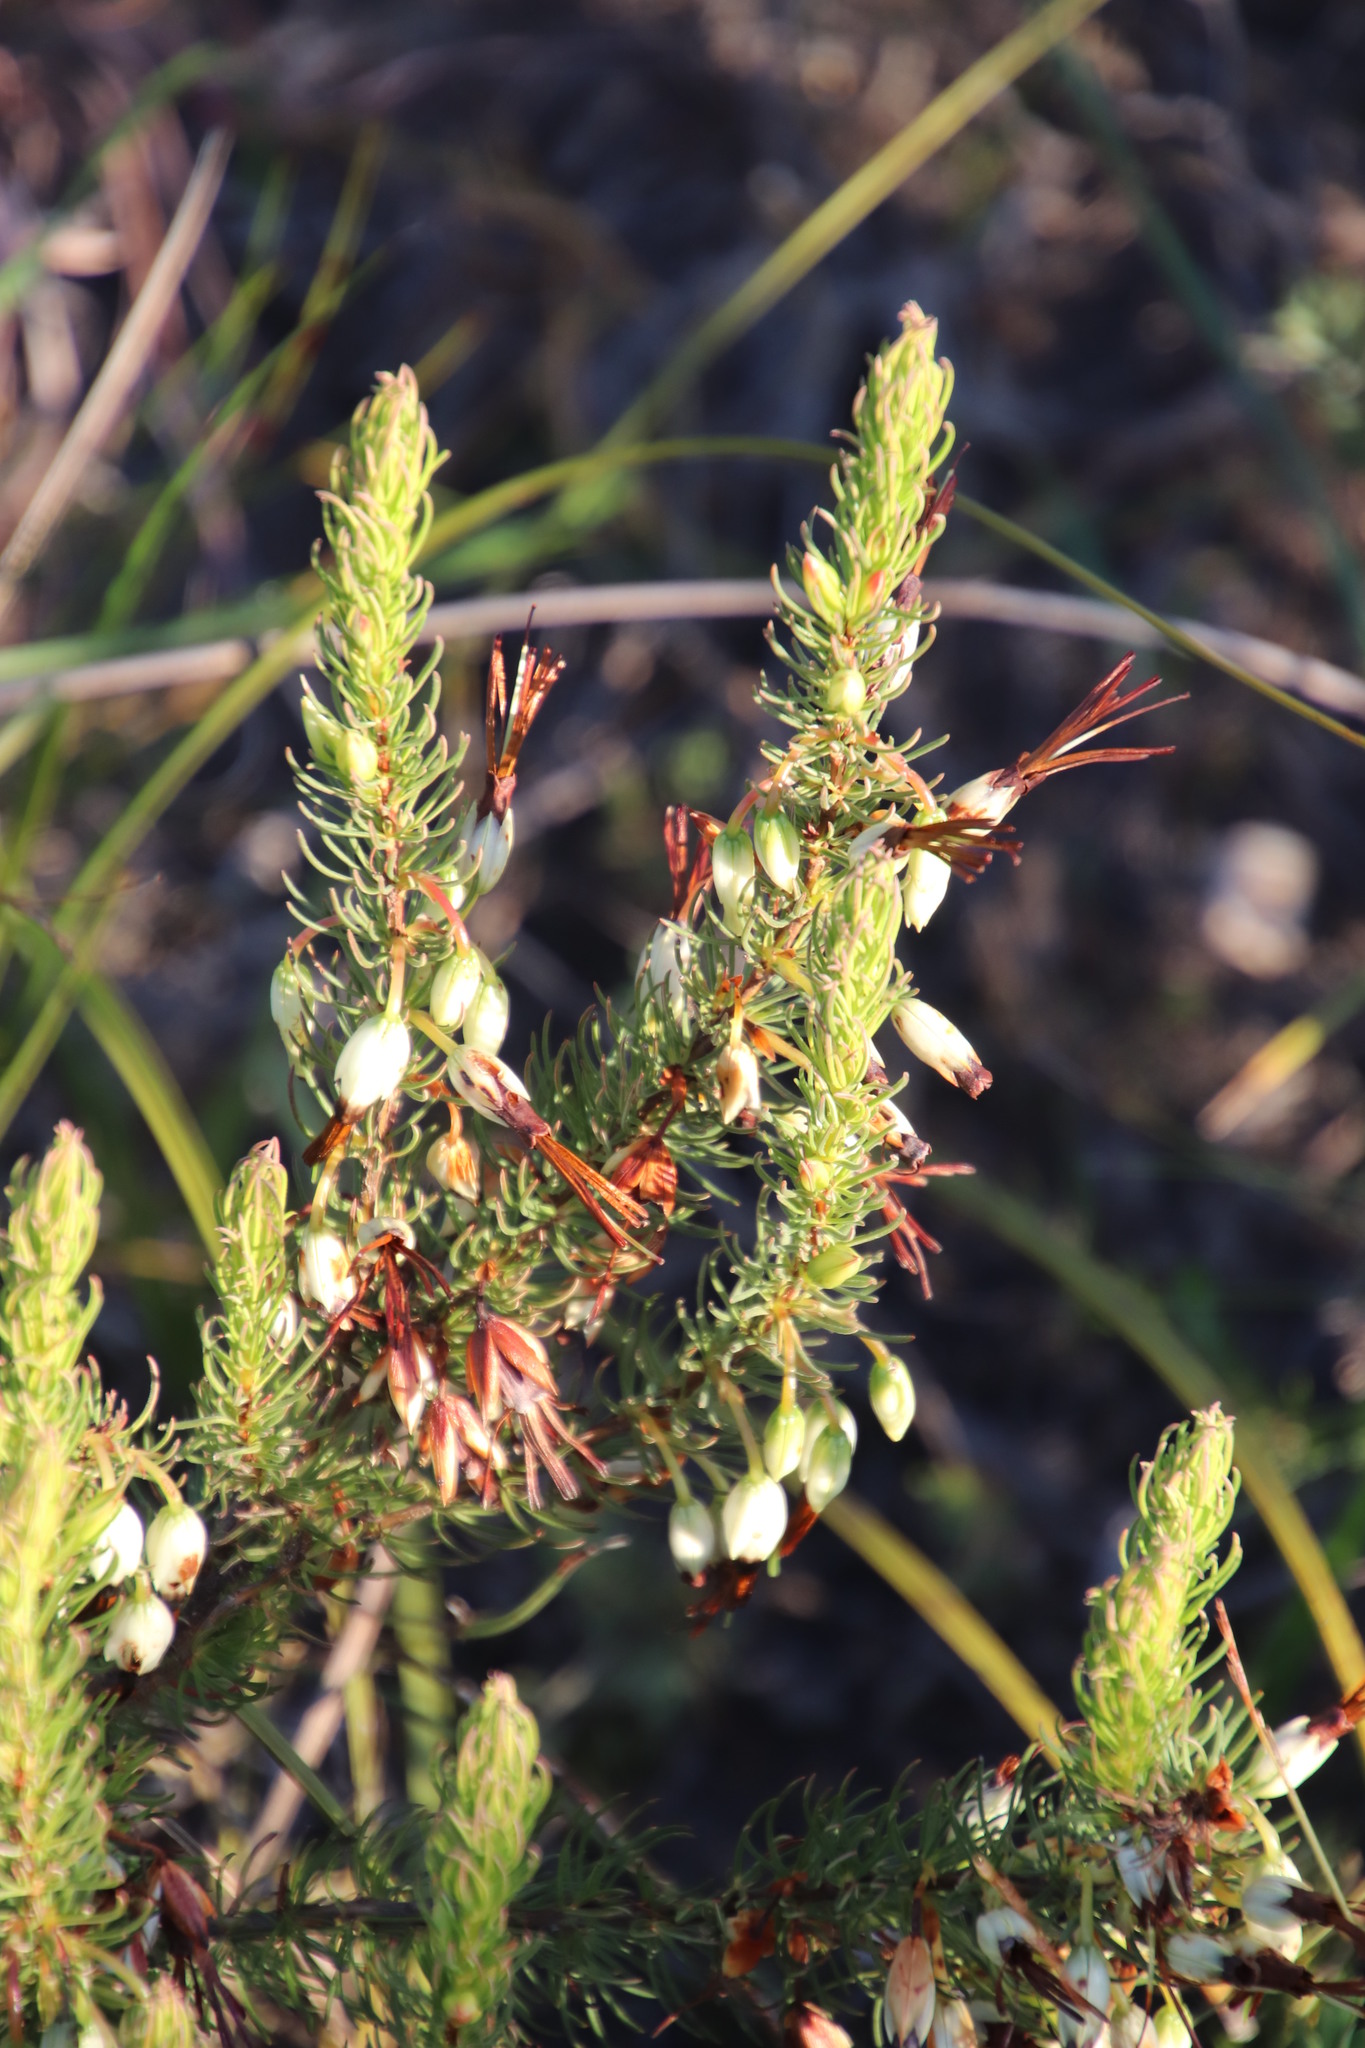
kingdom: Plantae
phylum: Tracheophyta
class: Magnoliopsida
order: Ericales
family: Ericaceae
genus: Erica
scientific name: Erica plukenetii
